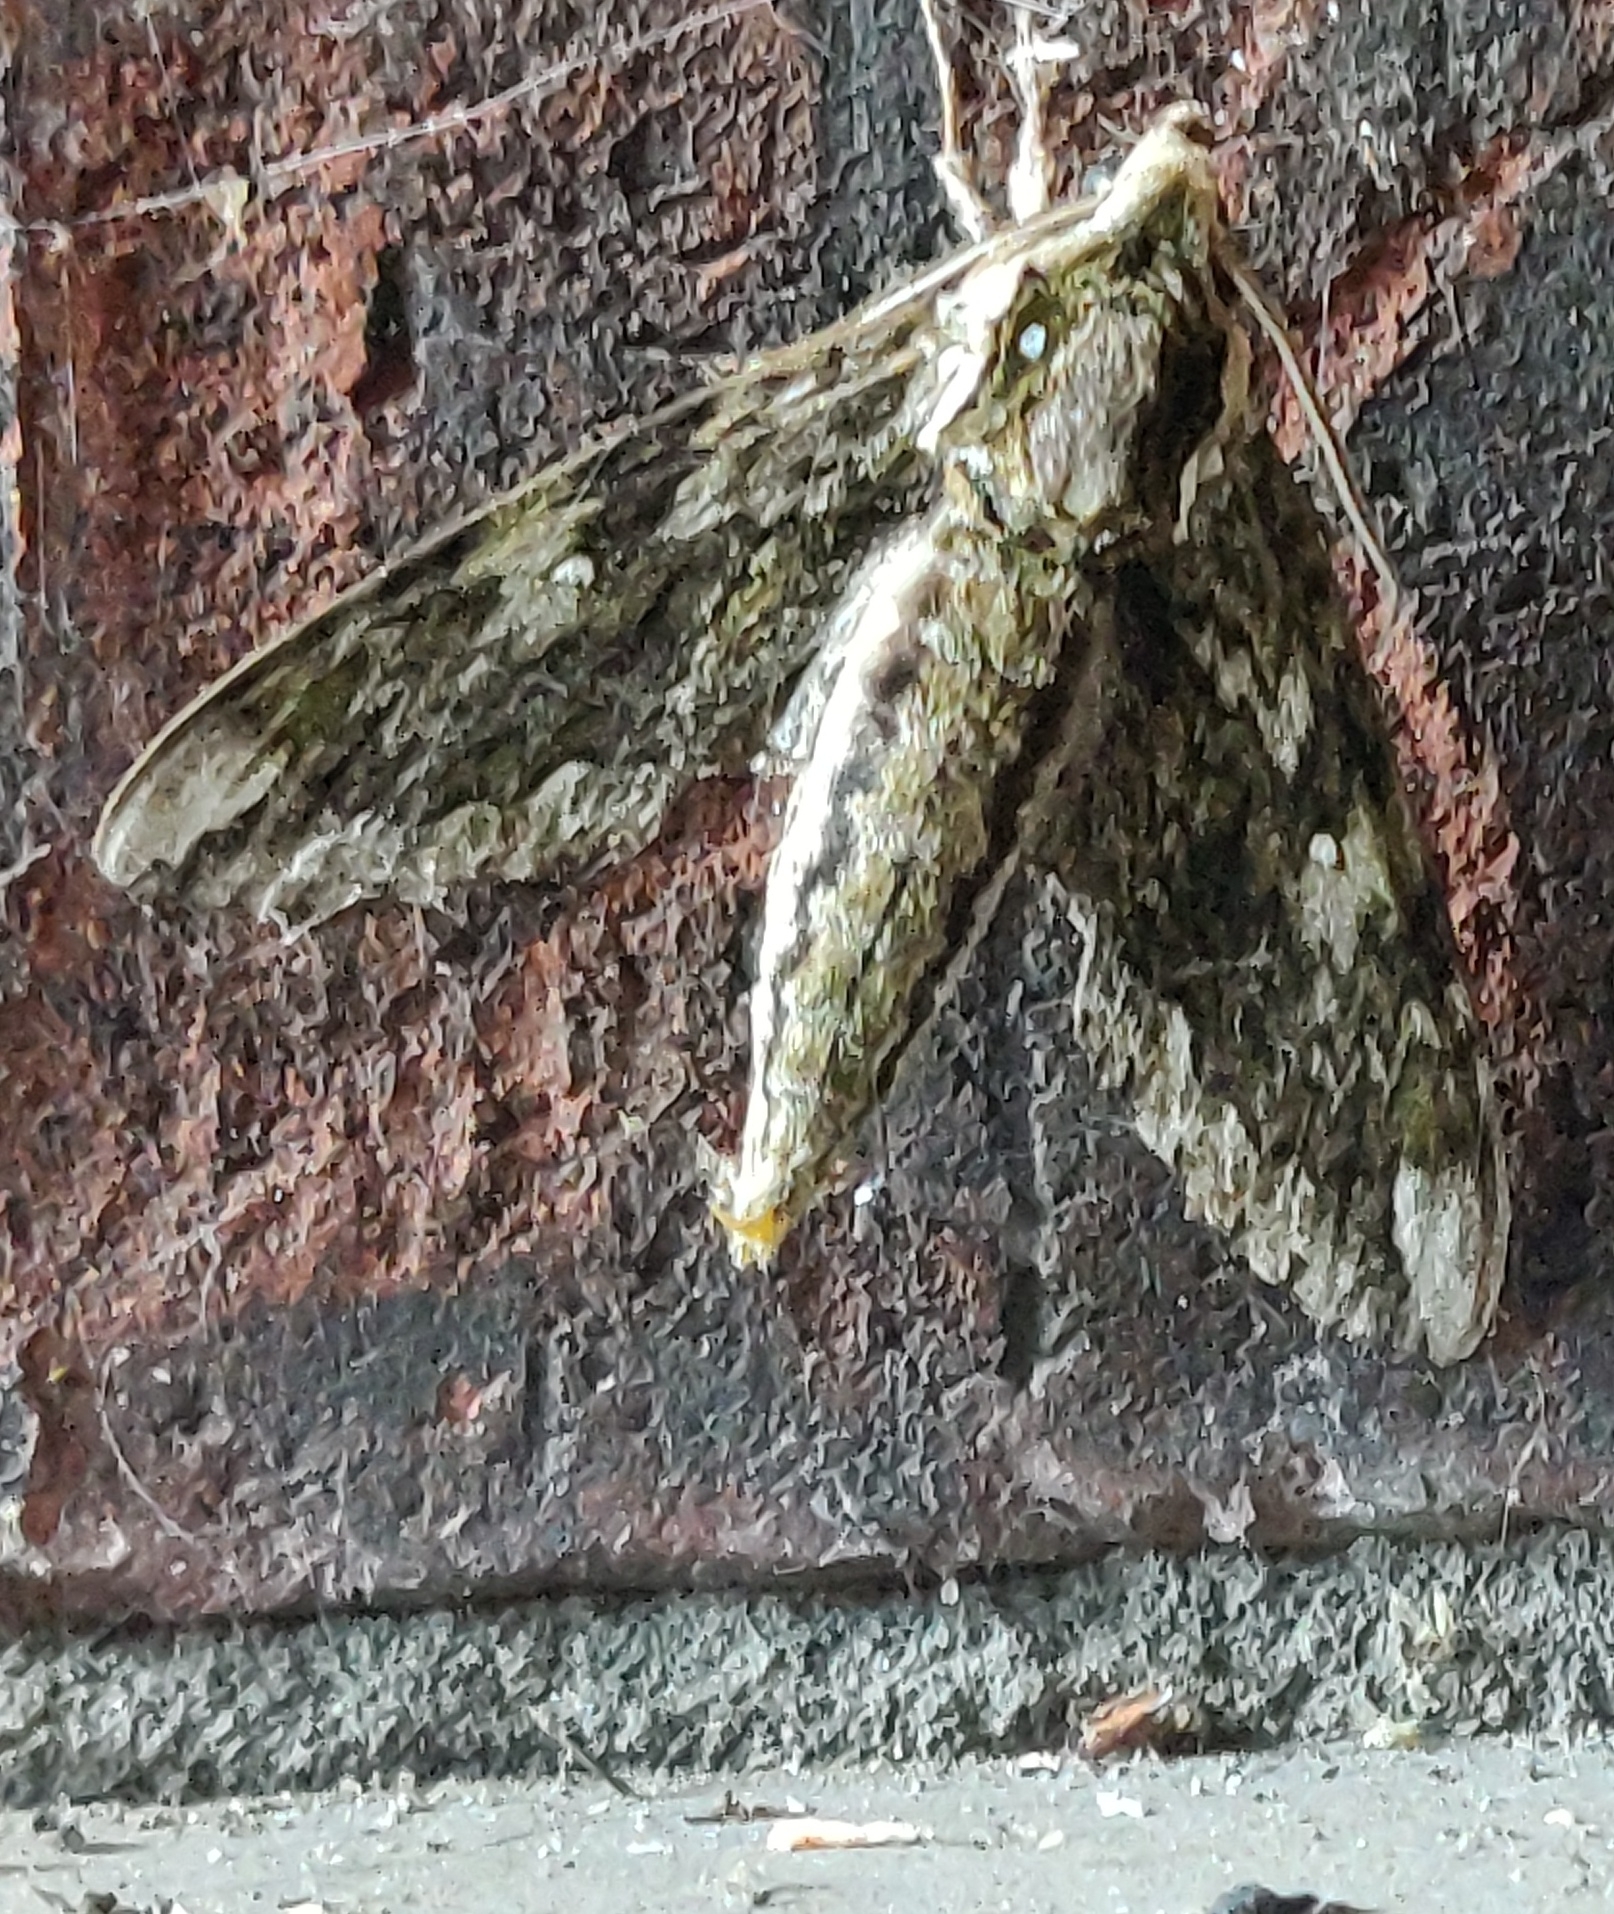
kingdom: Animalia
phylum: Arthropoda
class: Insecta
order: Lepidoptera
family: Sphingidae
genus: Ceratomia
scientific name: Ceratomia hageni
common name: Hagen's sphinx
